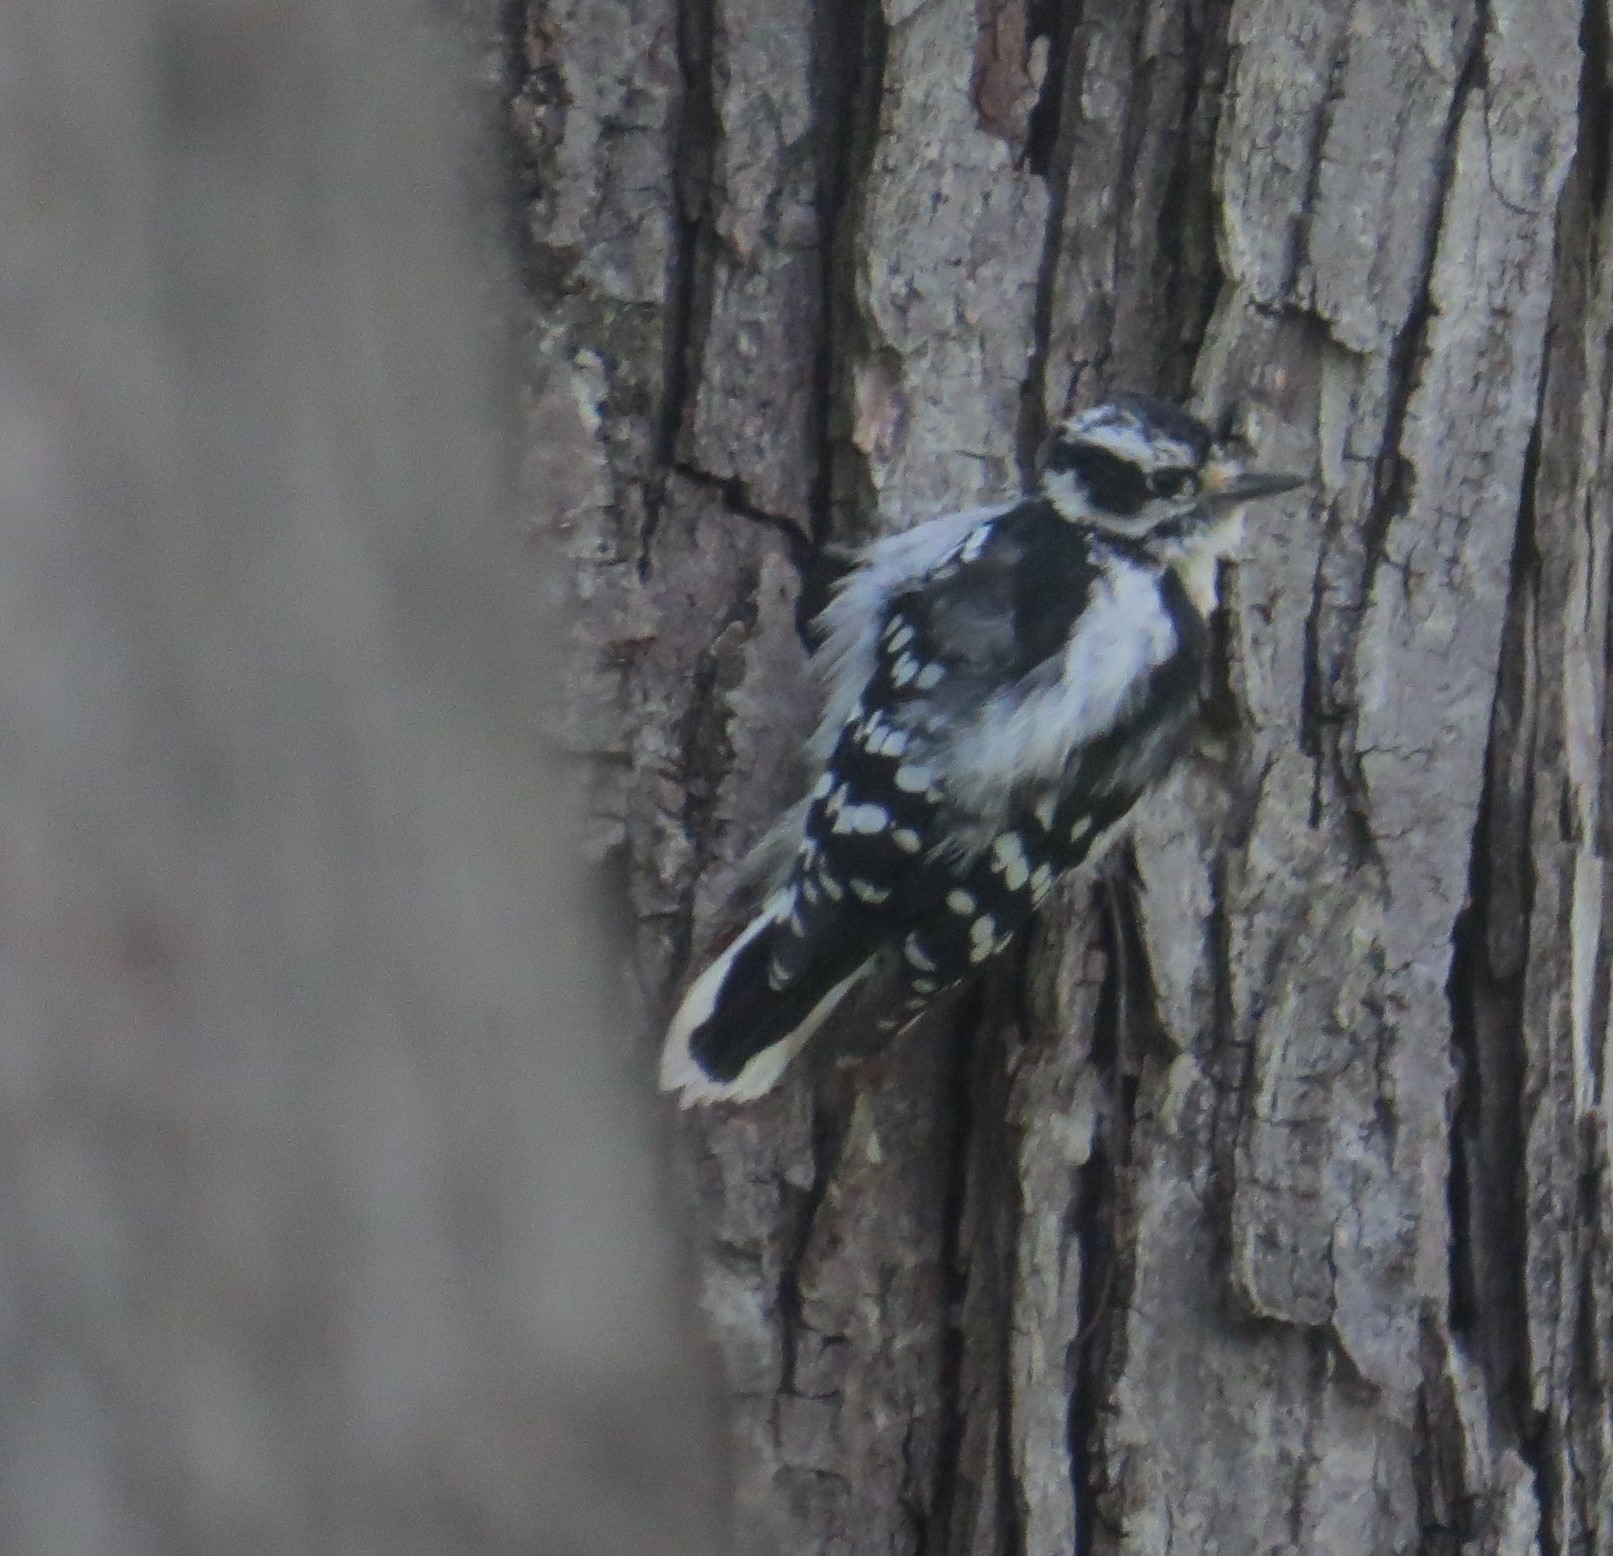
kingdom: Animalia
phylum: Chordata
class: Aves
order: Piciformes
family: Picidae
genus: Dryobates
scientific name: Dryobates pubescens
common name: Downy woodpecker
